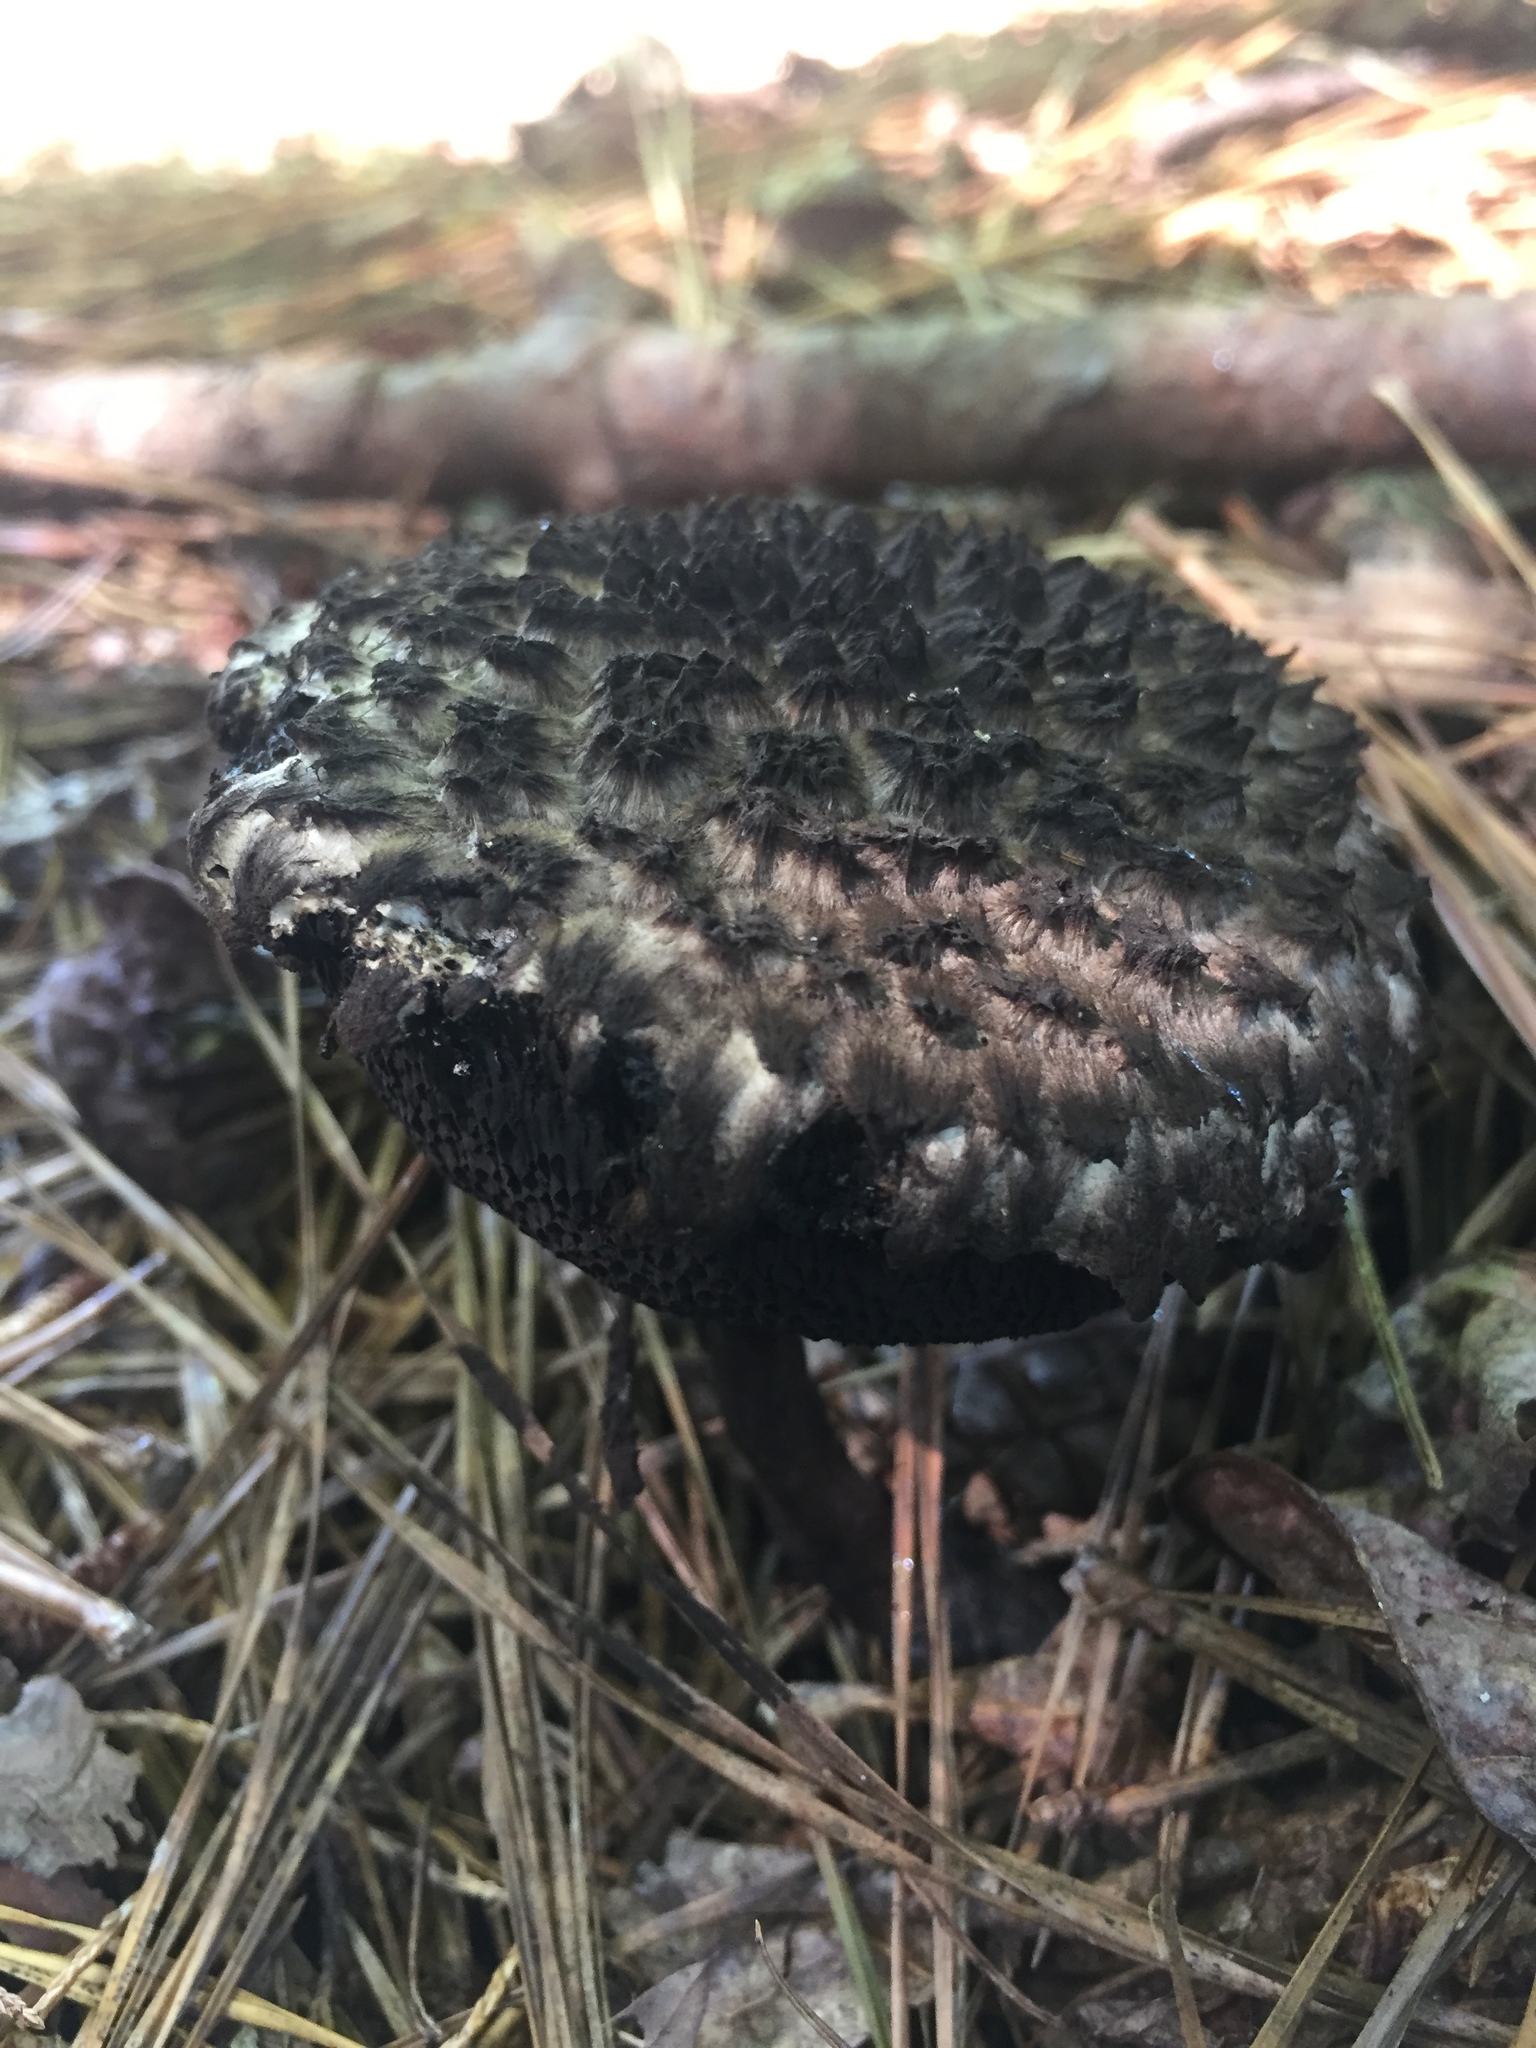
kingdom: Fungi
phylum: Basidiomycota
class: Agaricomycetes
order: Boletales
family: Boletaceae
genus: Strobilomyces
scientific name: Strobilomyces strobilaceus
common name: Old man of the woods
